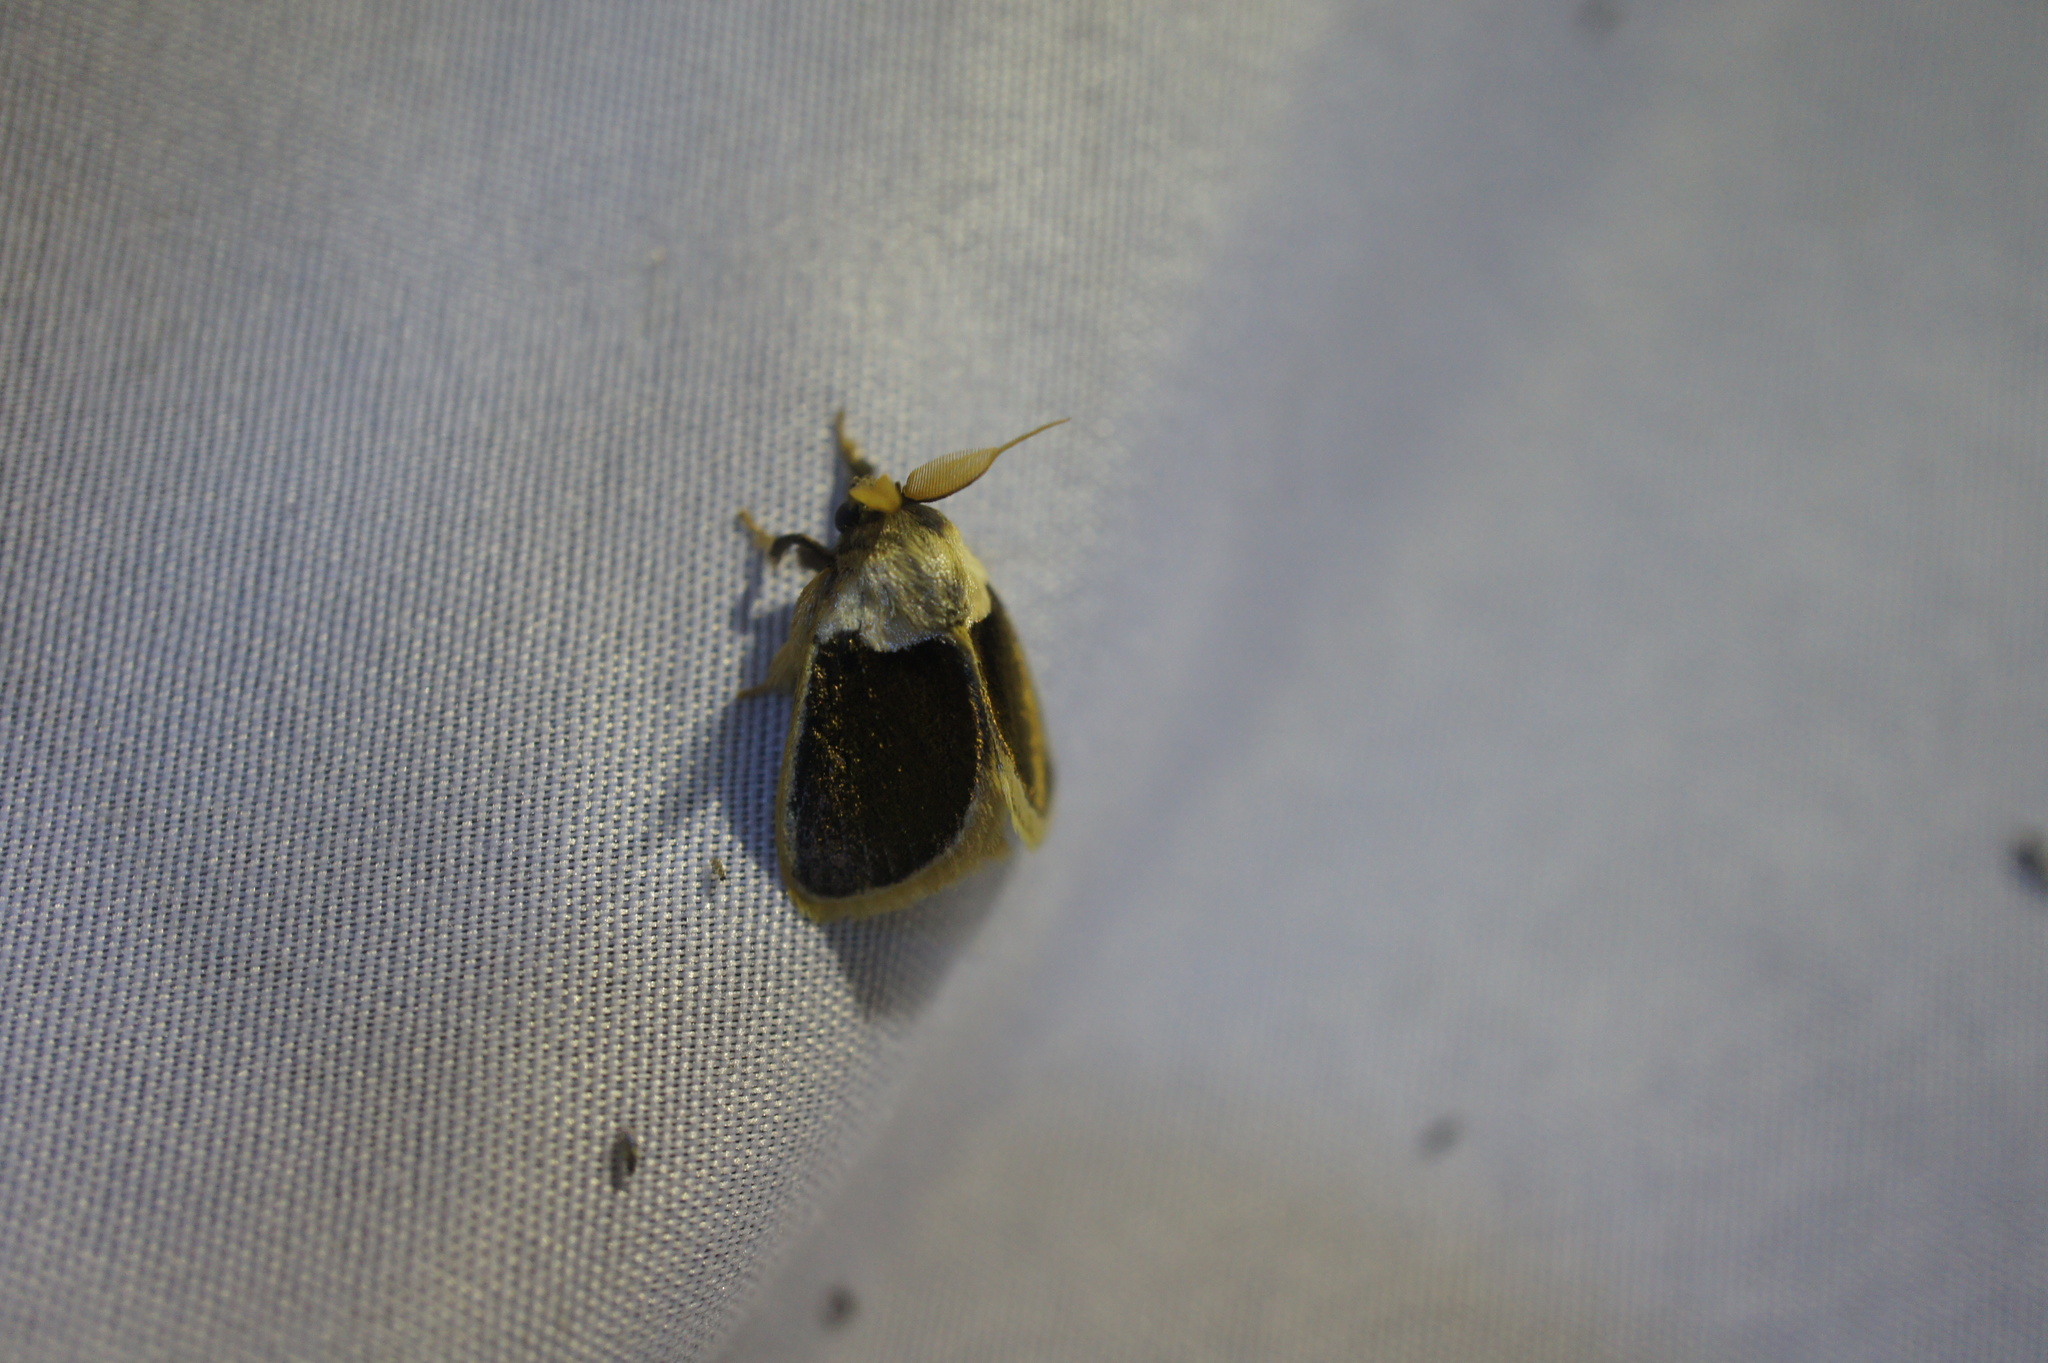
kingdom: Animalia
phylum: Arthropoda
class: Insecta
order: Lepidoptera
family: Limacodidae
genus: Cania
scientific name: Cania bandura
